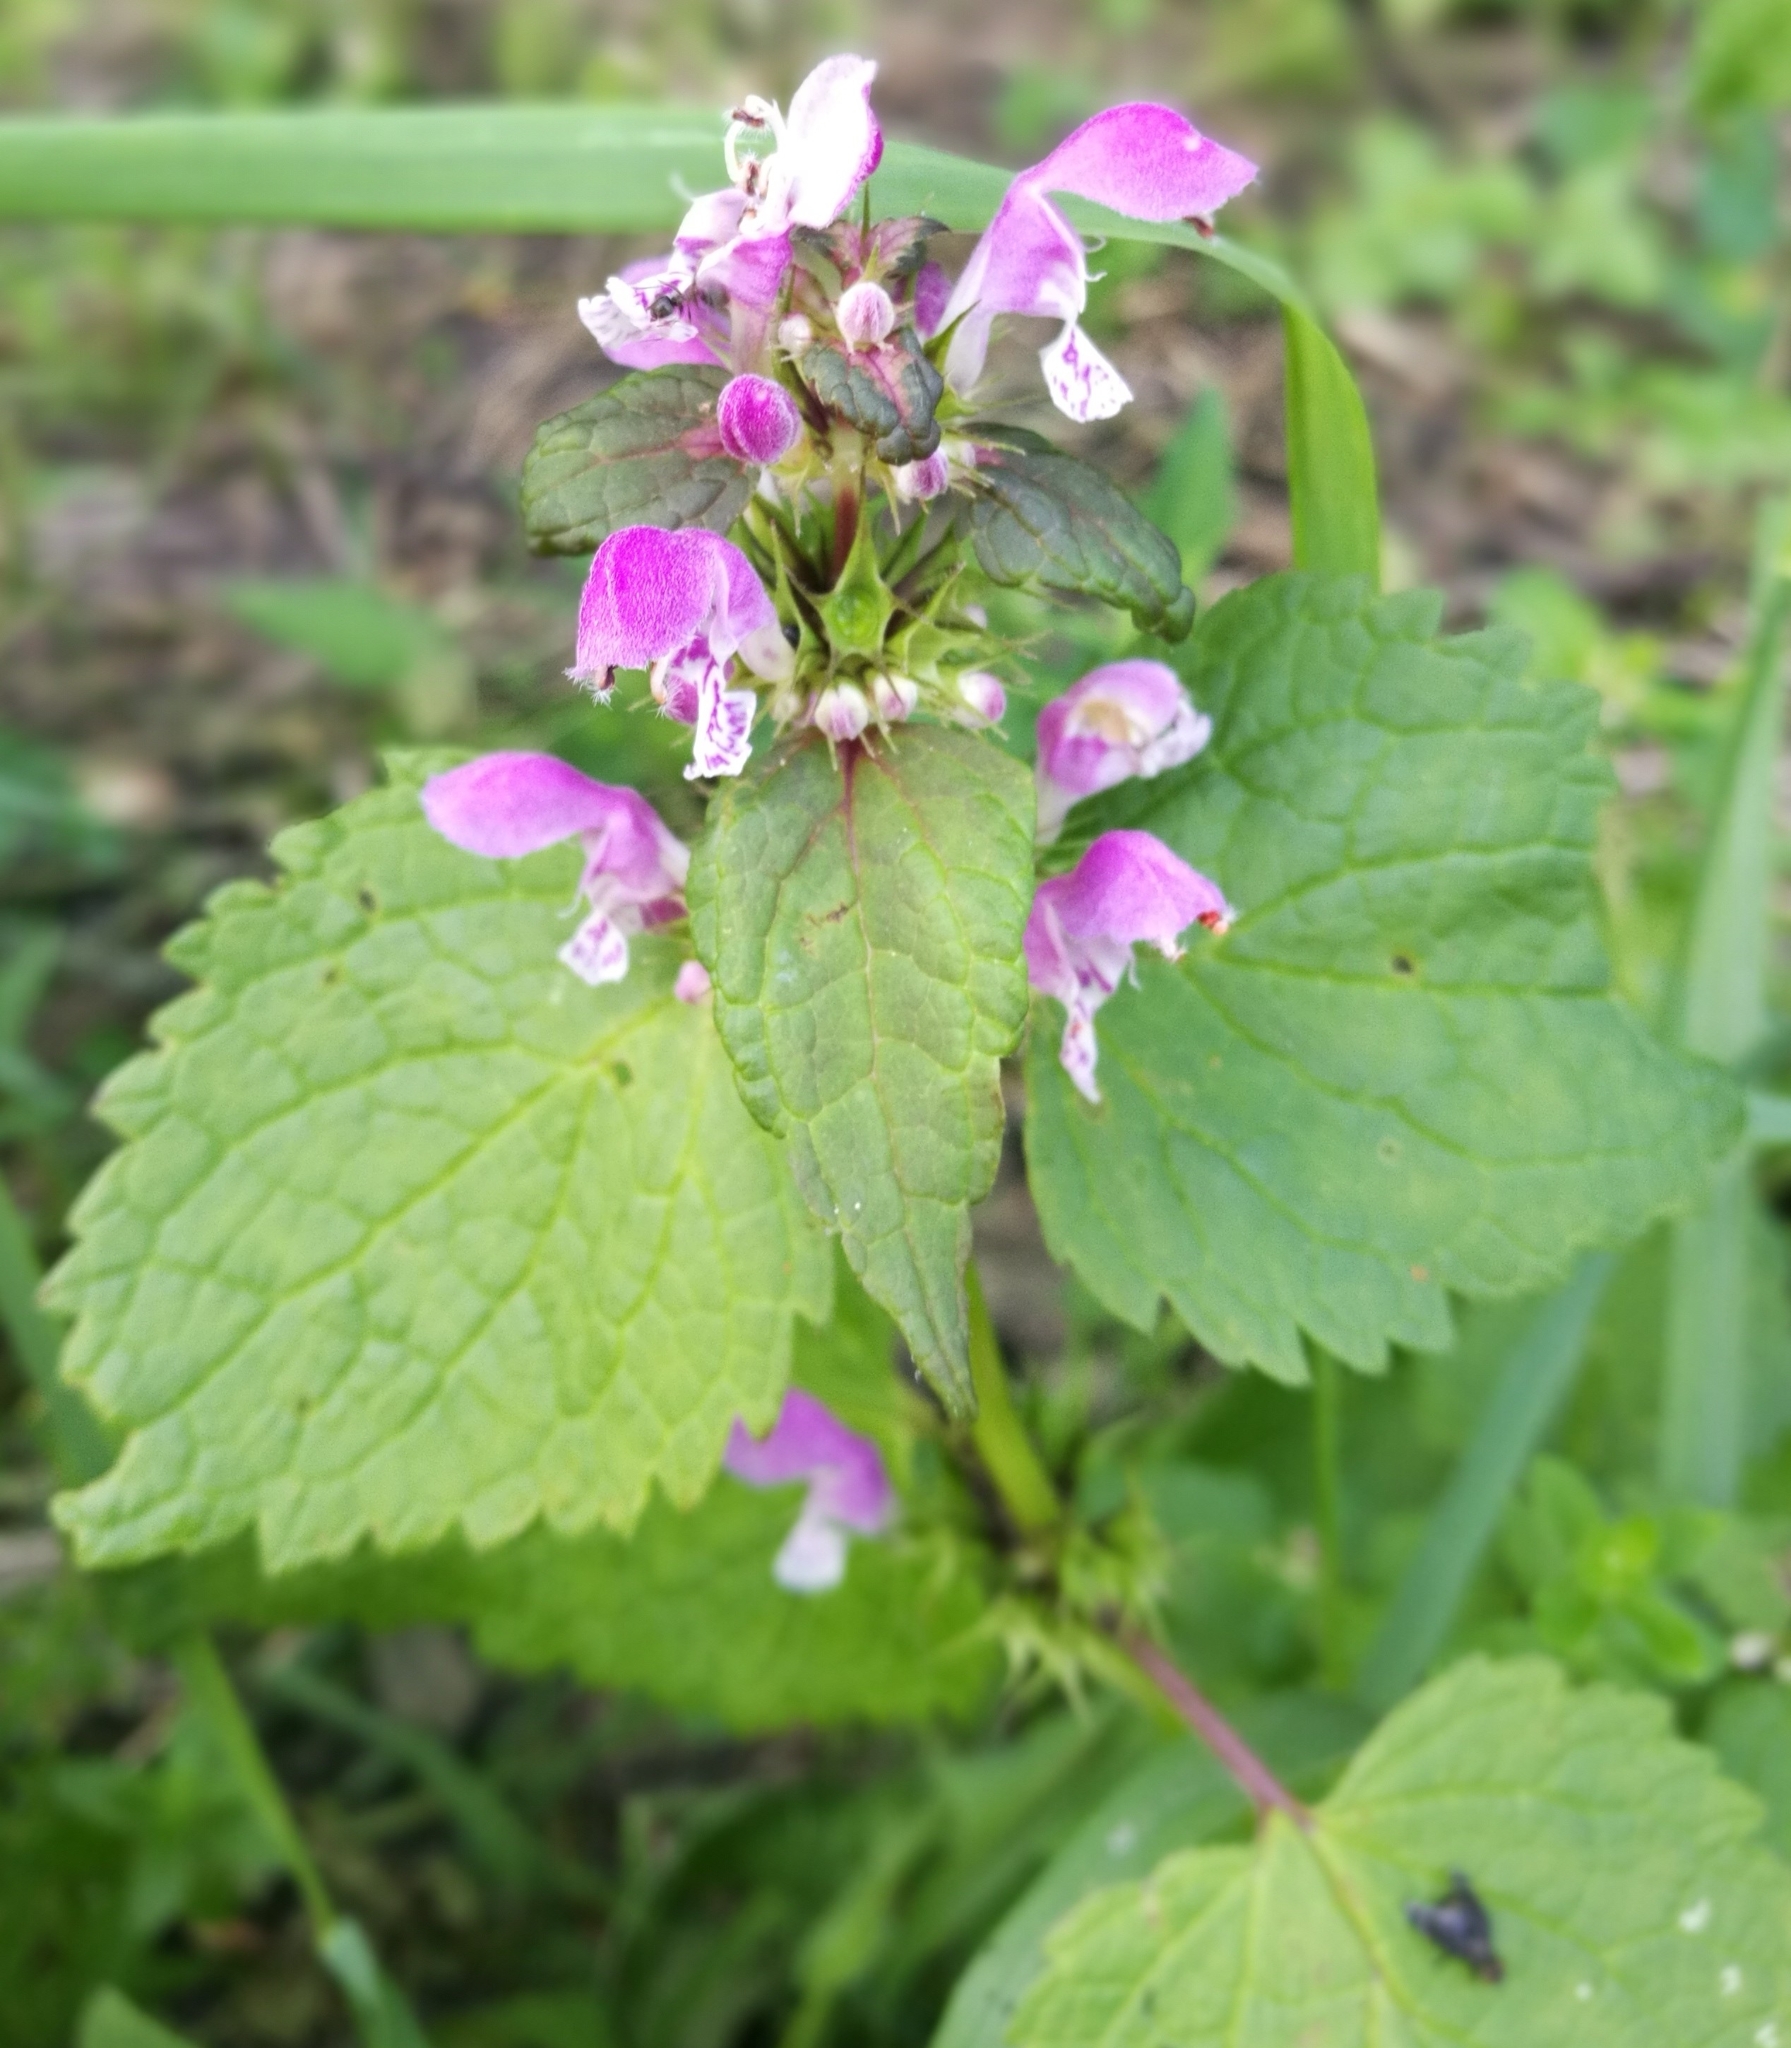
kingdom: Plantae
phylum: Tracheophyta
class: Magnoliopsida
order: Lamiales
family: Lamiaceae
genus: Lamium
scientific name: Lamium maculatum
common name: Spotted dead-nettle
